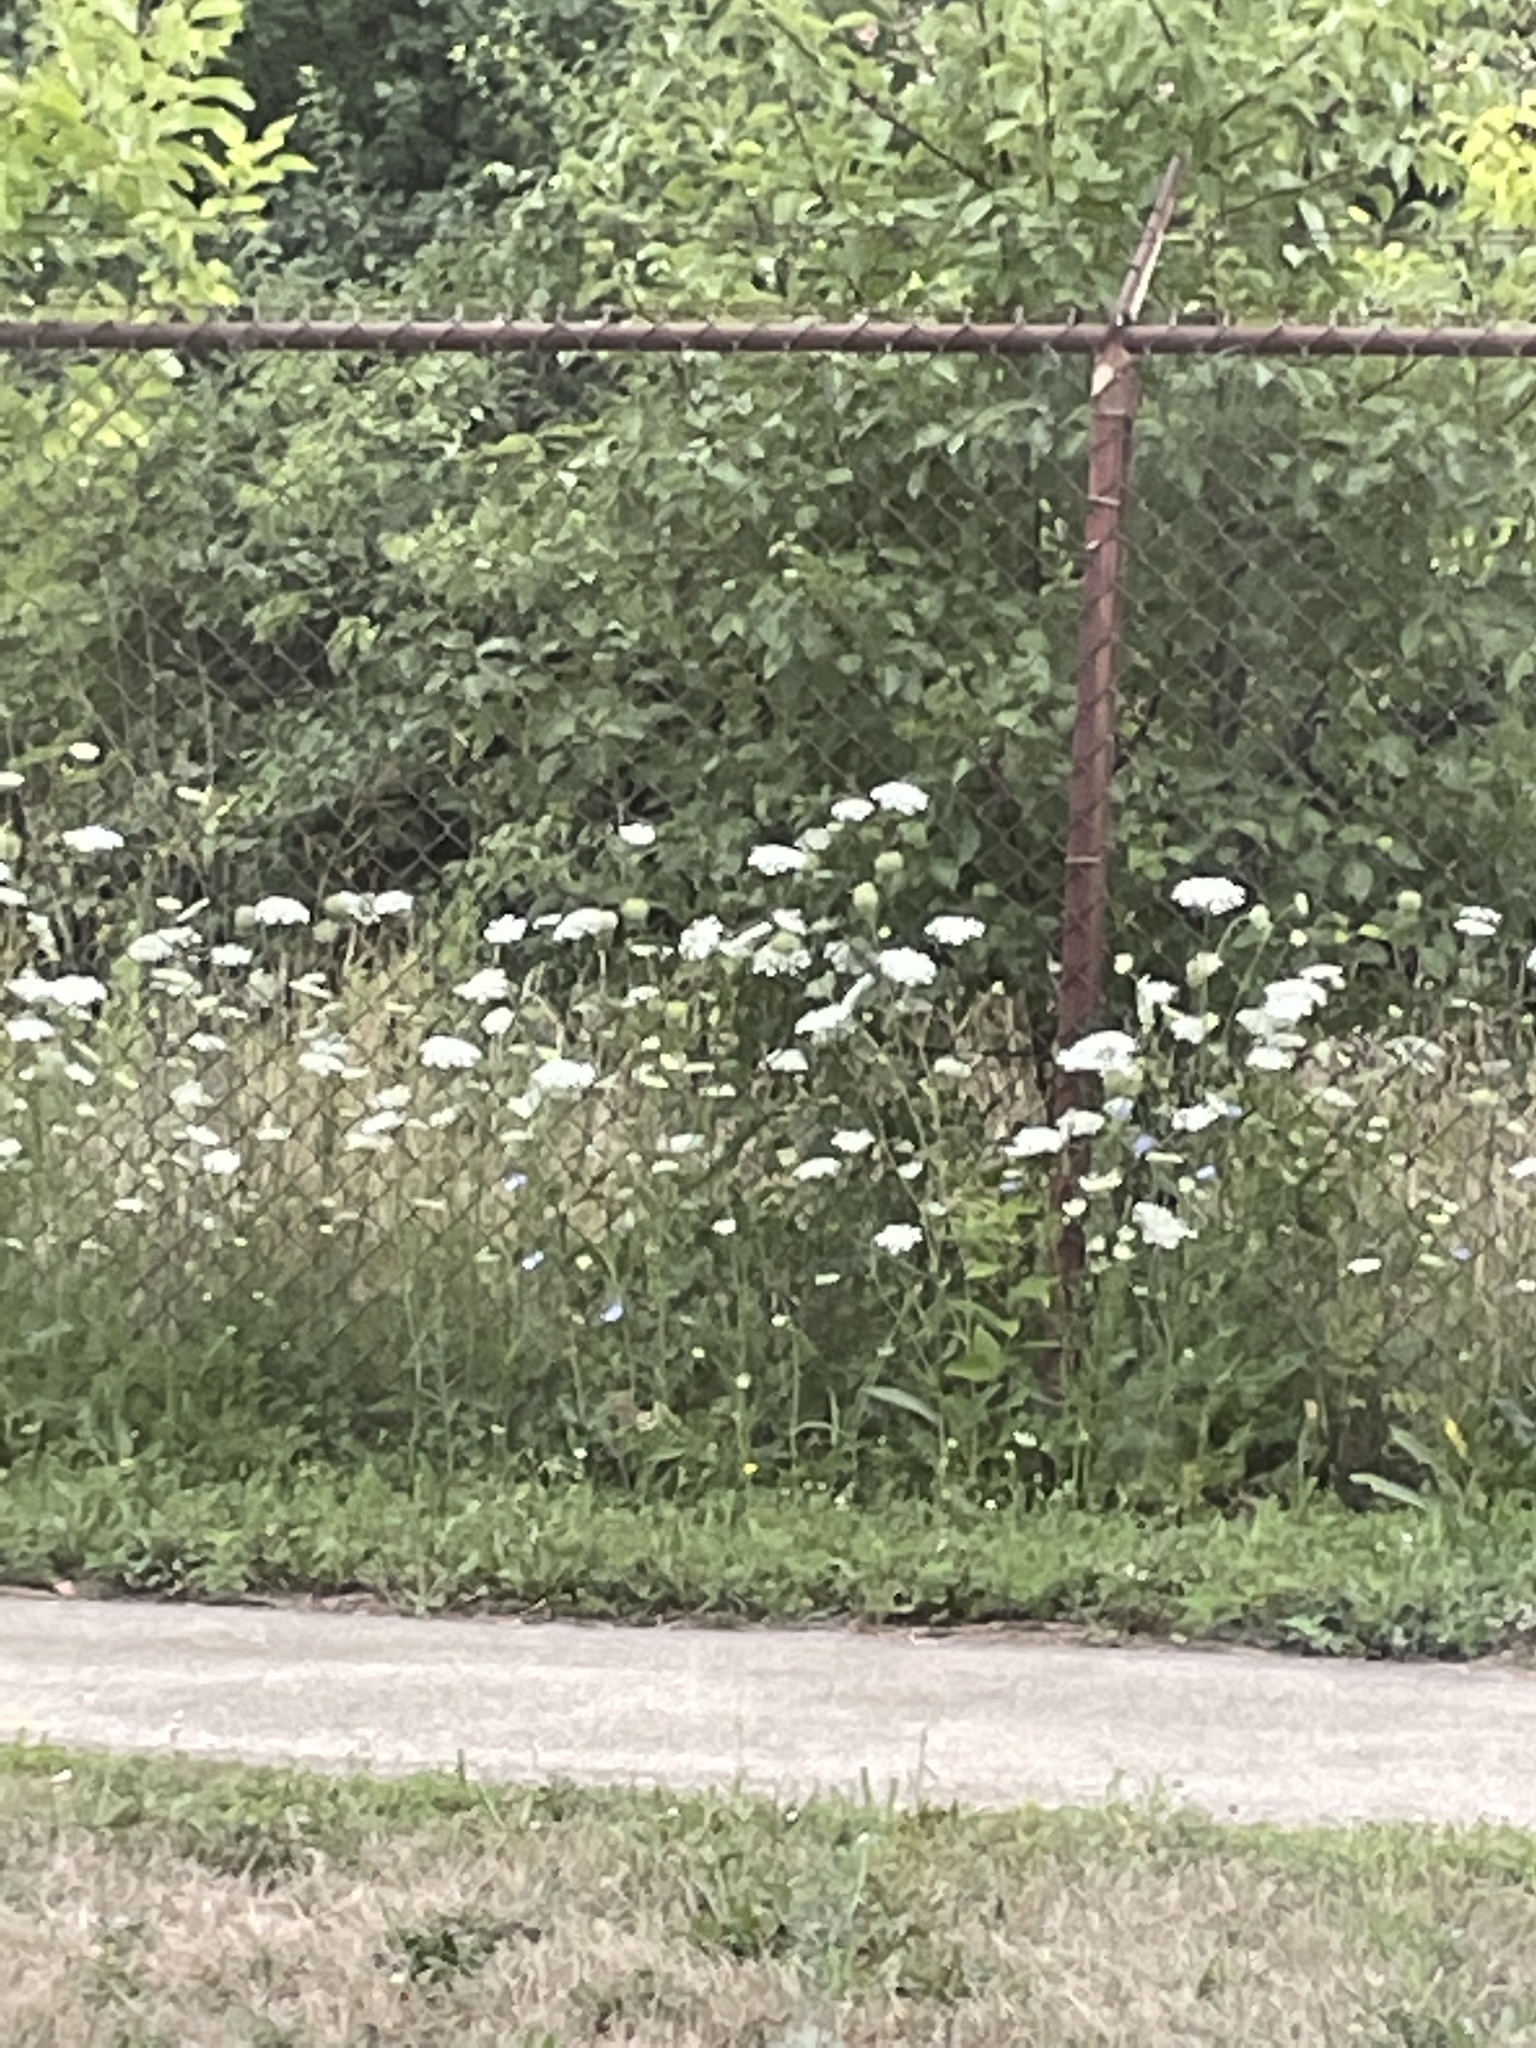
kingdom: Plantae
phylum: Tracheophyta
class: Magnoliopsida
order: Apiales
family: Apiaceae
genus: Daucus
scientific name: Daucus carota
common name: Wild carrot
